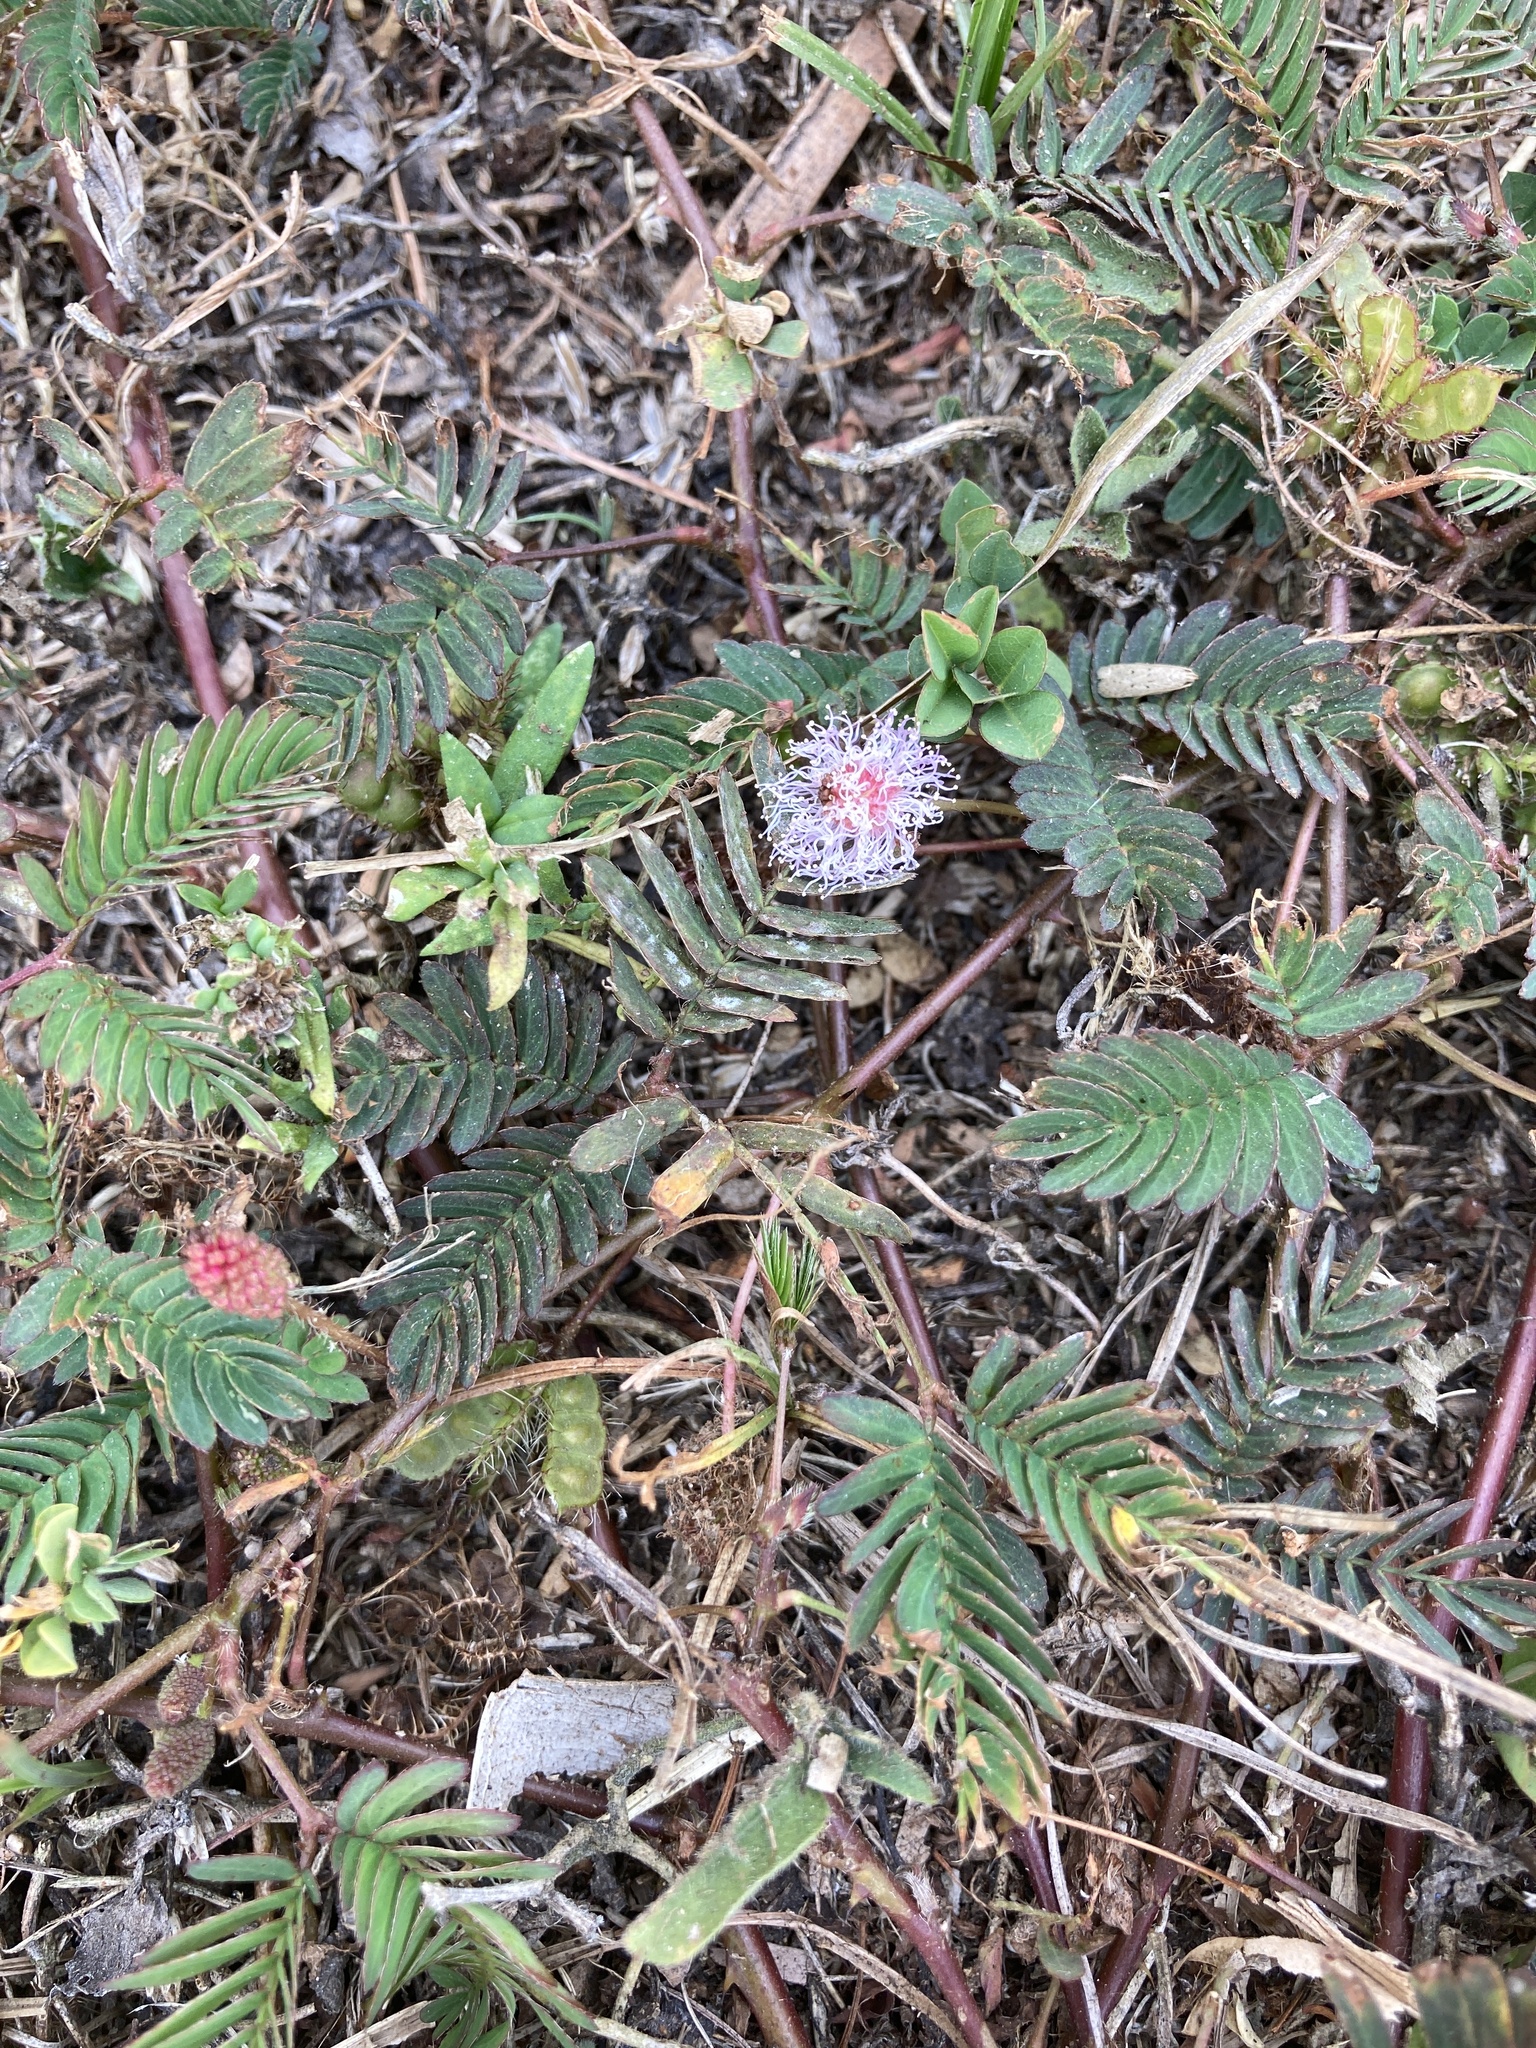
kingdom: Plantae
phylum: Tracheophyta
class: Magnoliopsida
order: Fabales
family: Fabaceae
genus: Mimosa
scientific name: Mimosa pudica
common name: Sensitive plant
